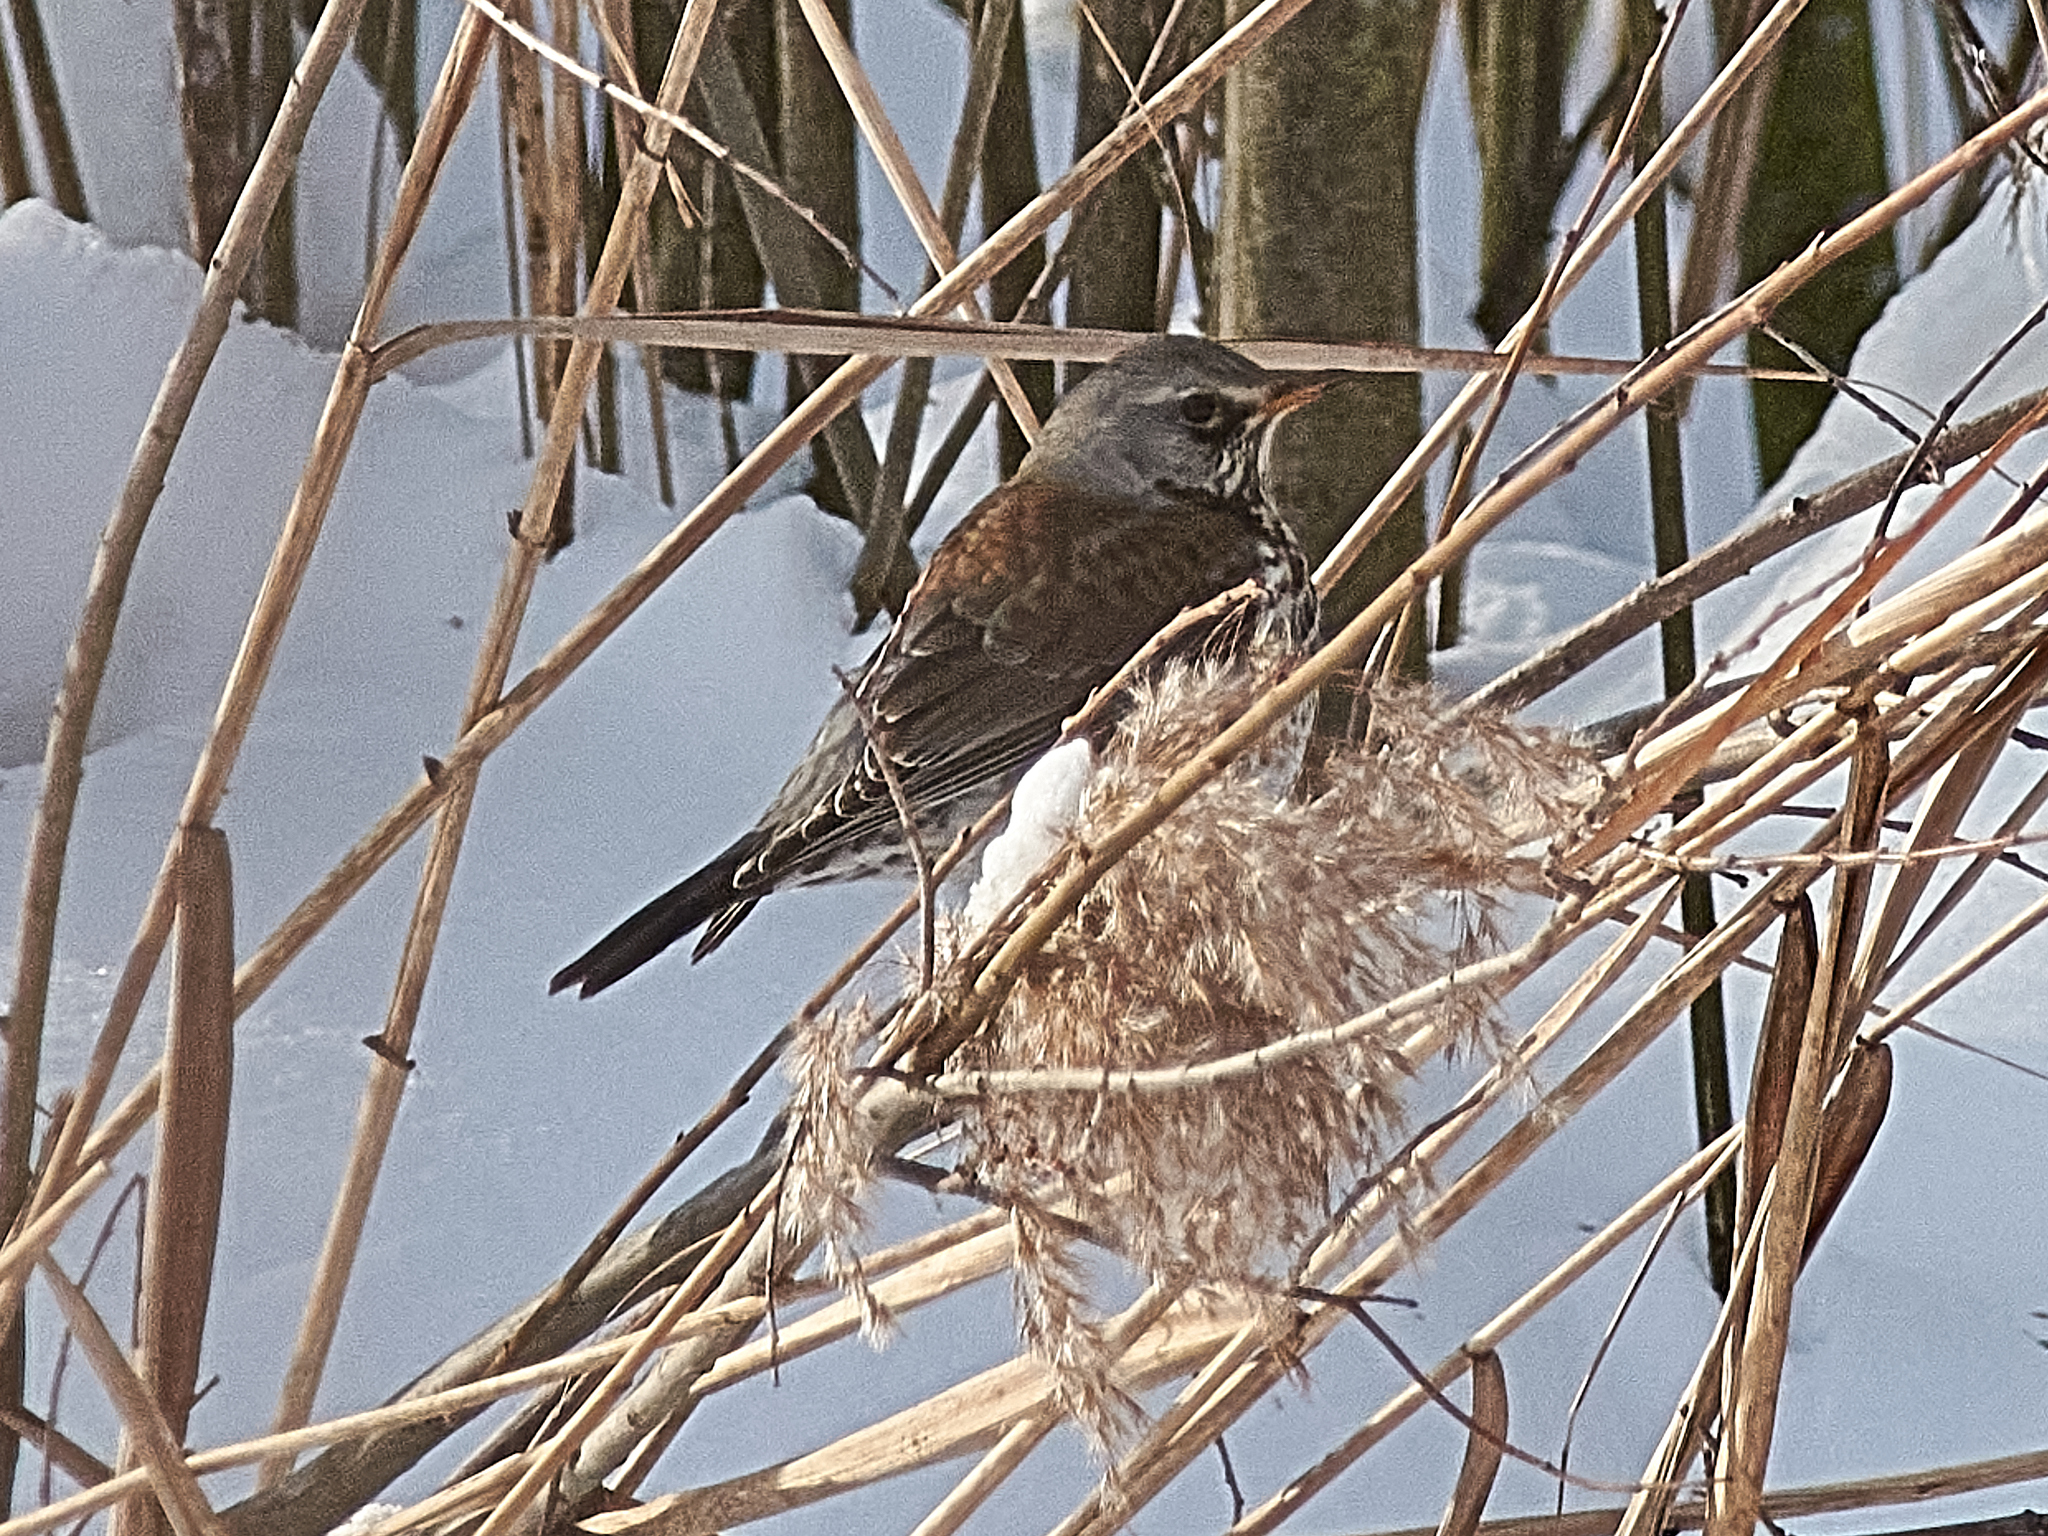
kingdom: Animalia
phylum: Chordata
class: Aves
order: Passeriformes
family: Turdidae
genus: Turdus
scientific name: Turdus pilaris
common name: Fieldfare
